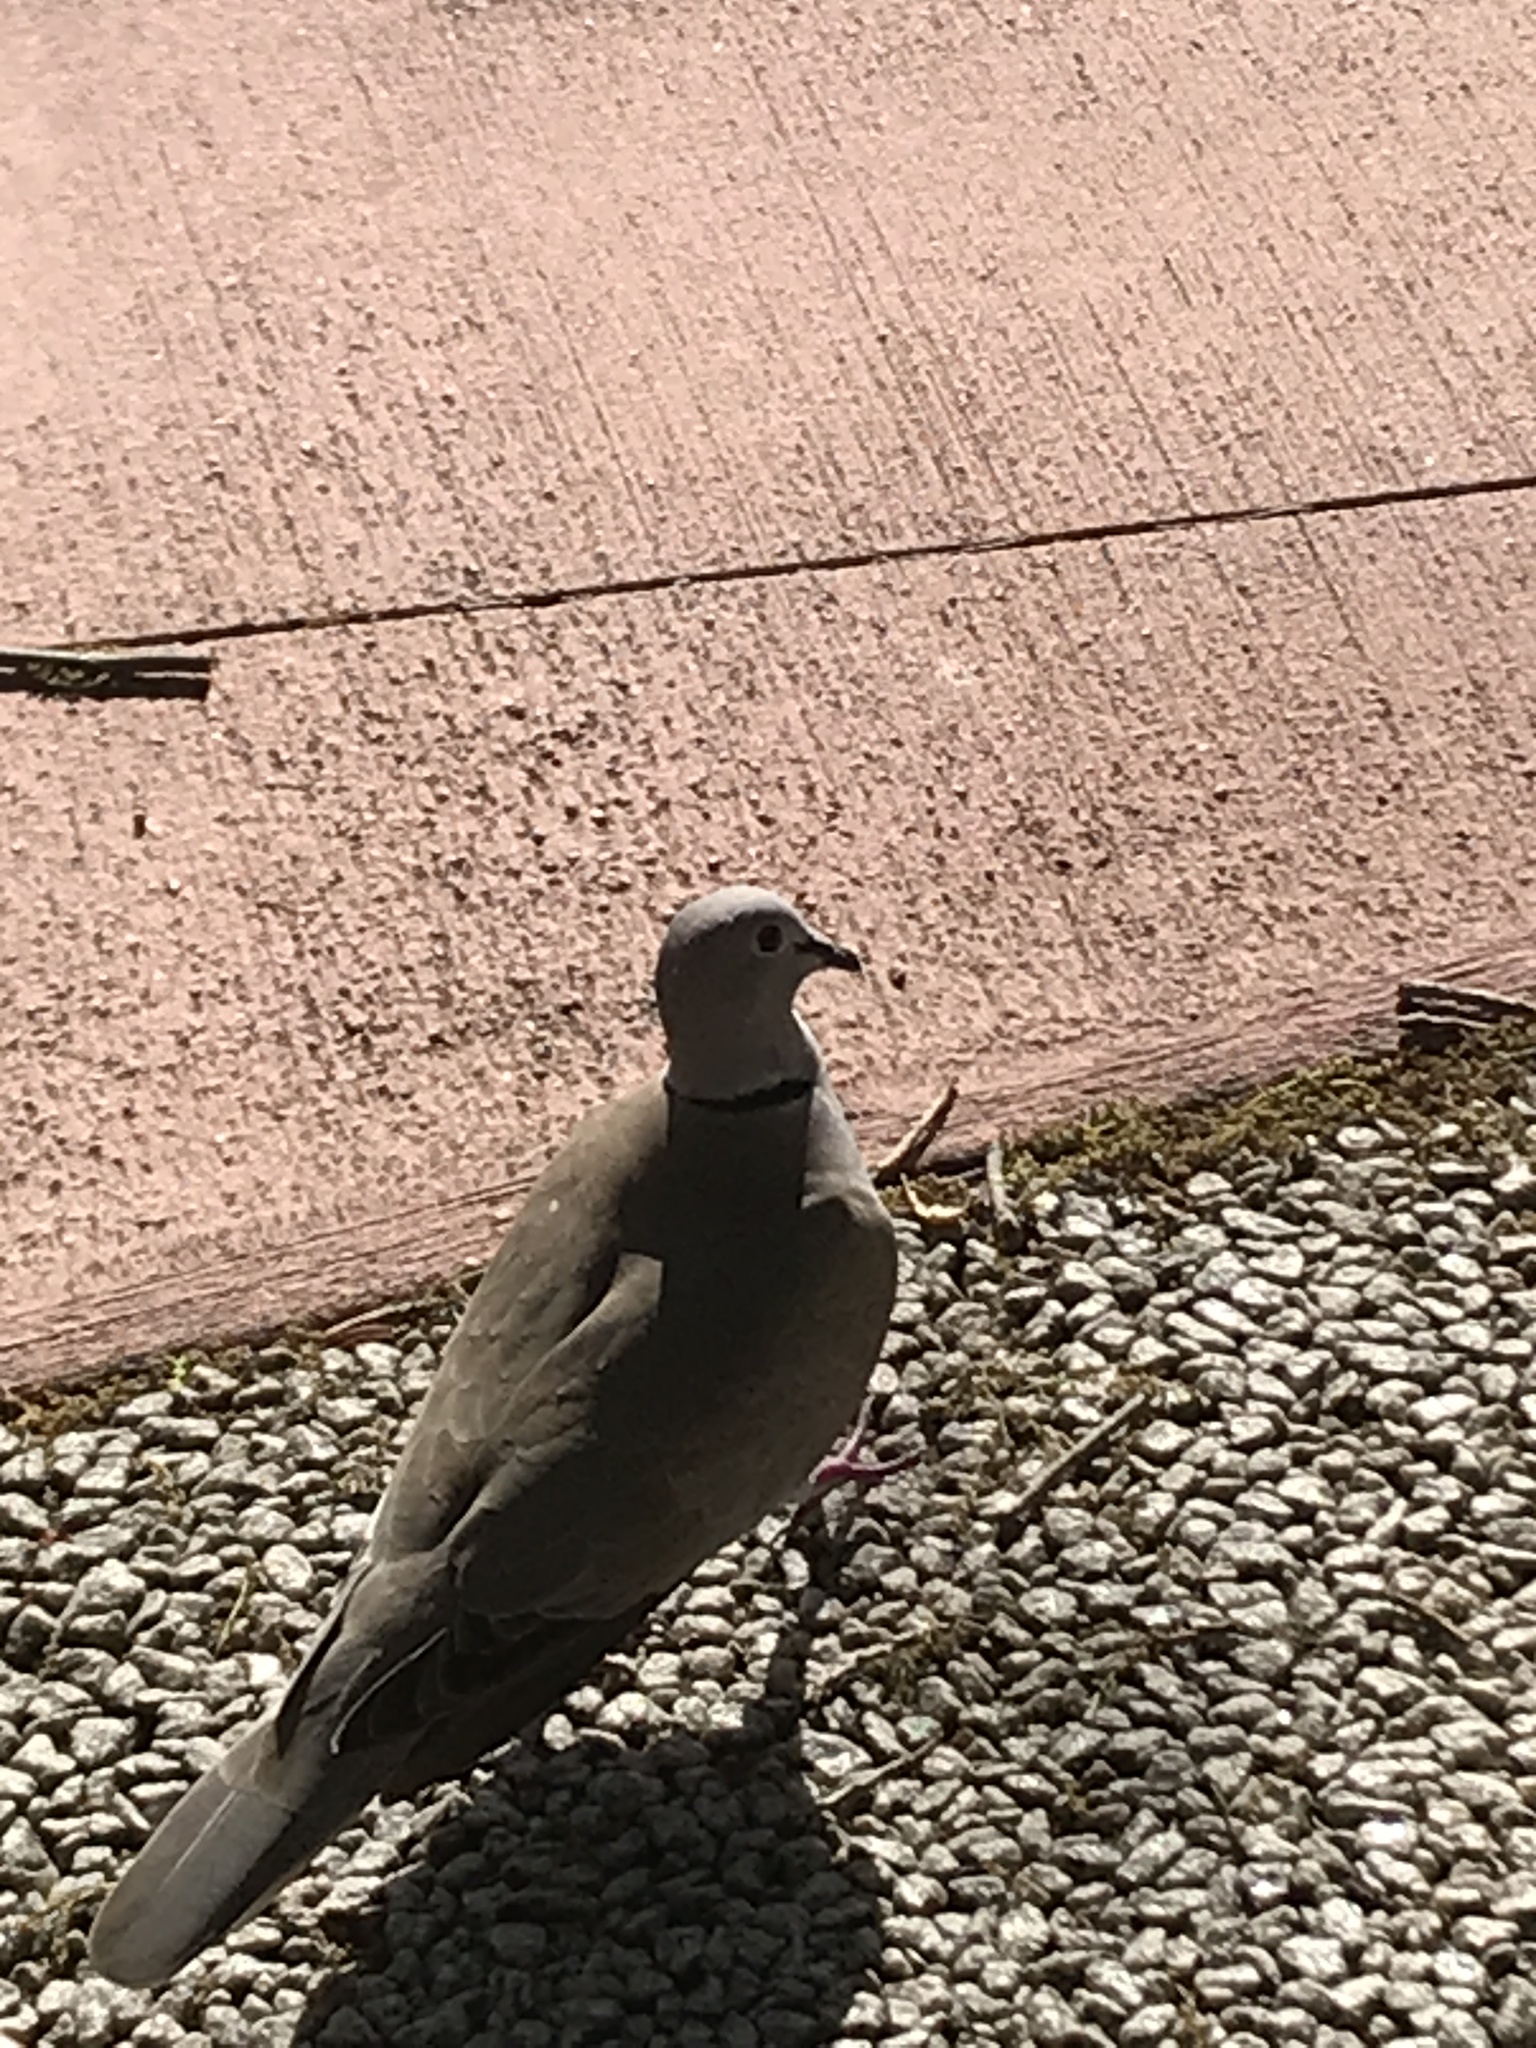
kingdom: Animalia
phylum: Chordata
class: Aves
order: Columbiformes
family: Columbidae
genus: Streptopelia
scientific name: Streptopelia decaocto
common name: Eurasian collared dove
